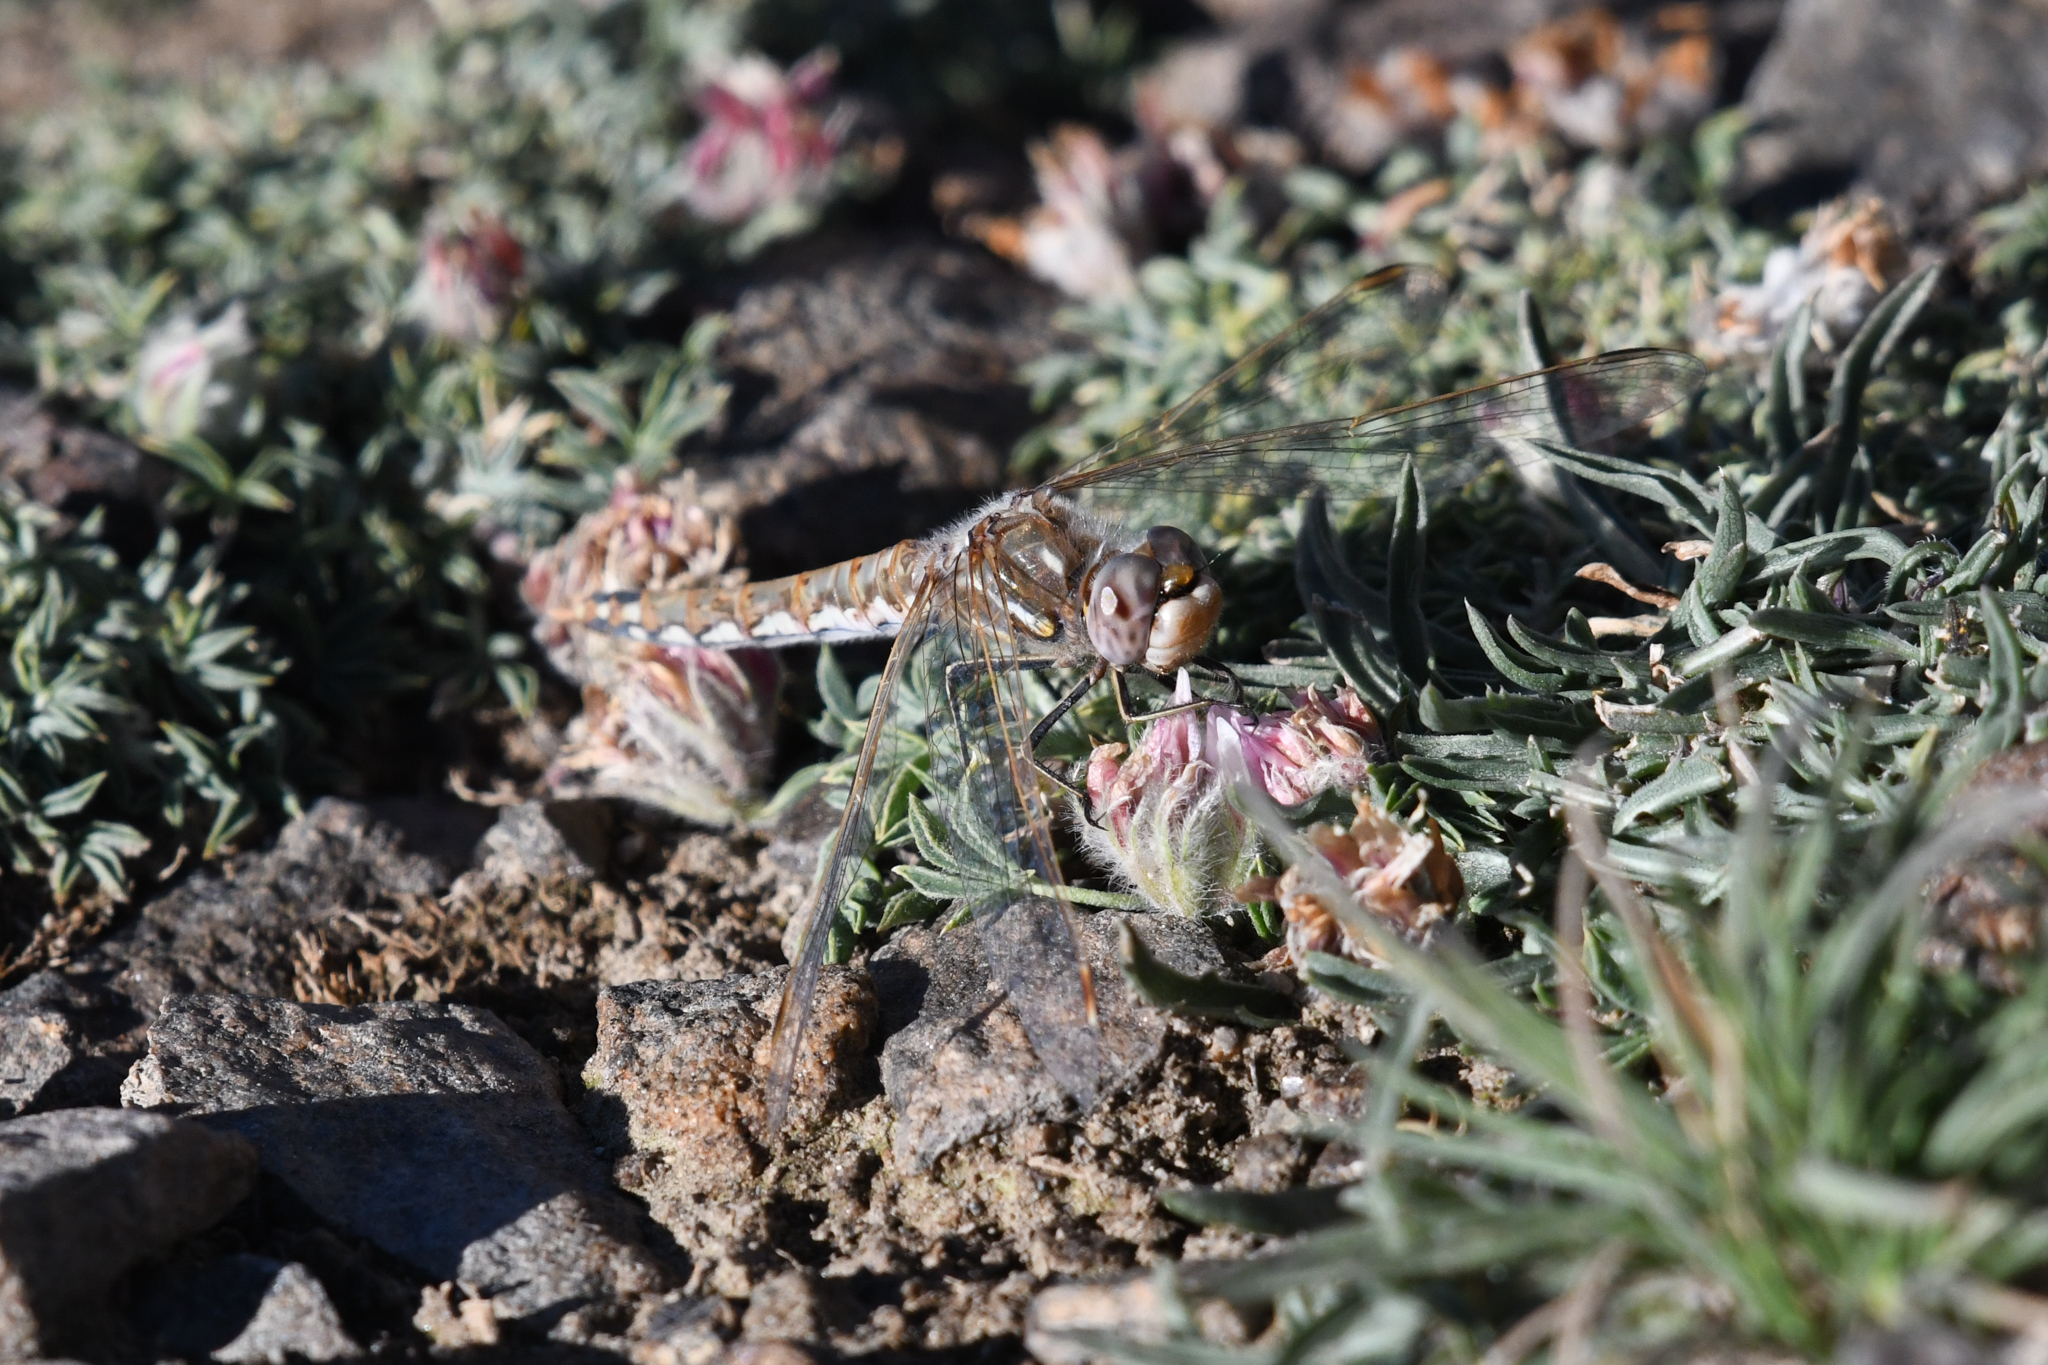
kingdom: Animalia
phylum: Arthropoda
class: Insecta
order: Odonata
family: Libellulidae
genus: Sympetrum
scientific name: Sympetrum corruptum
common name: Variegated meadowhawk
